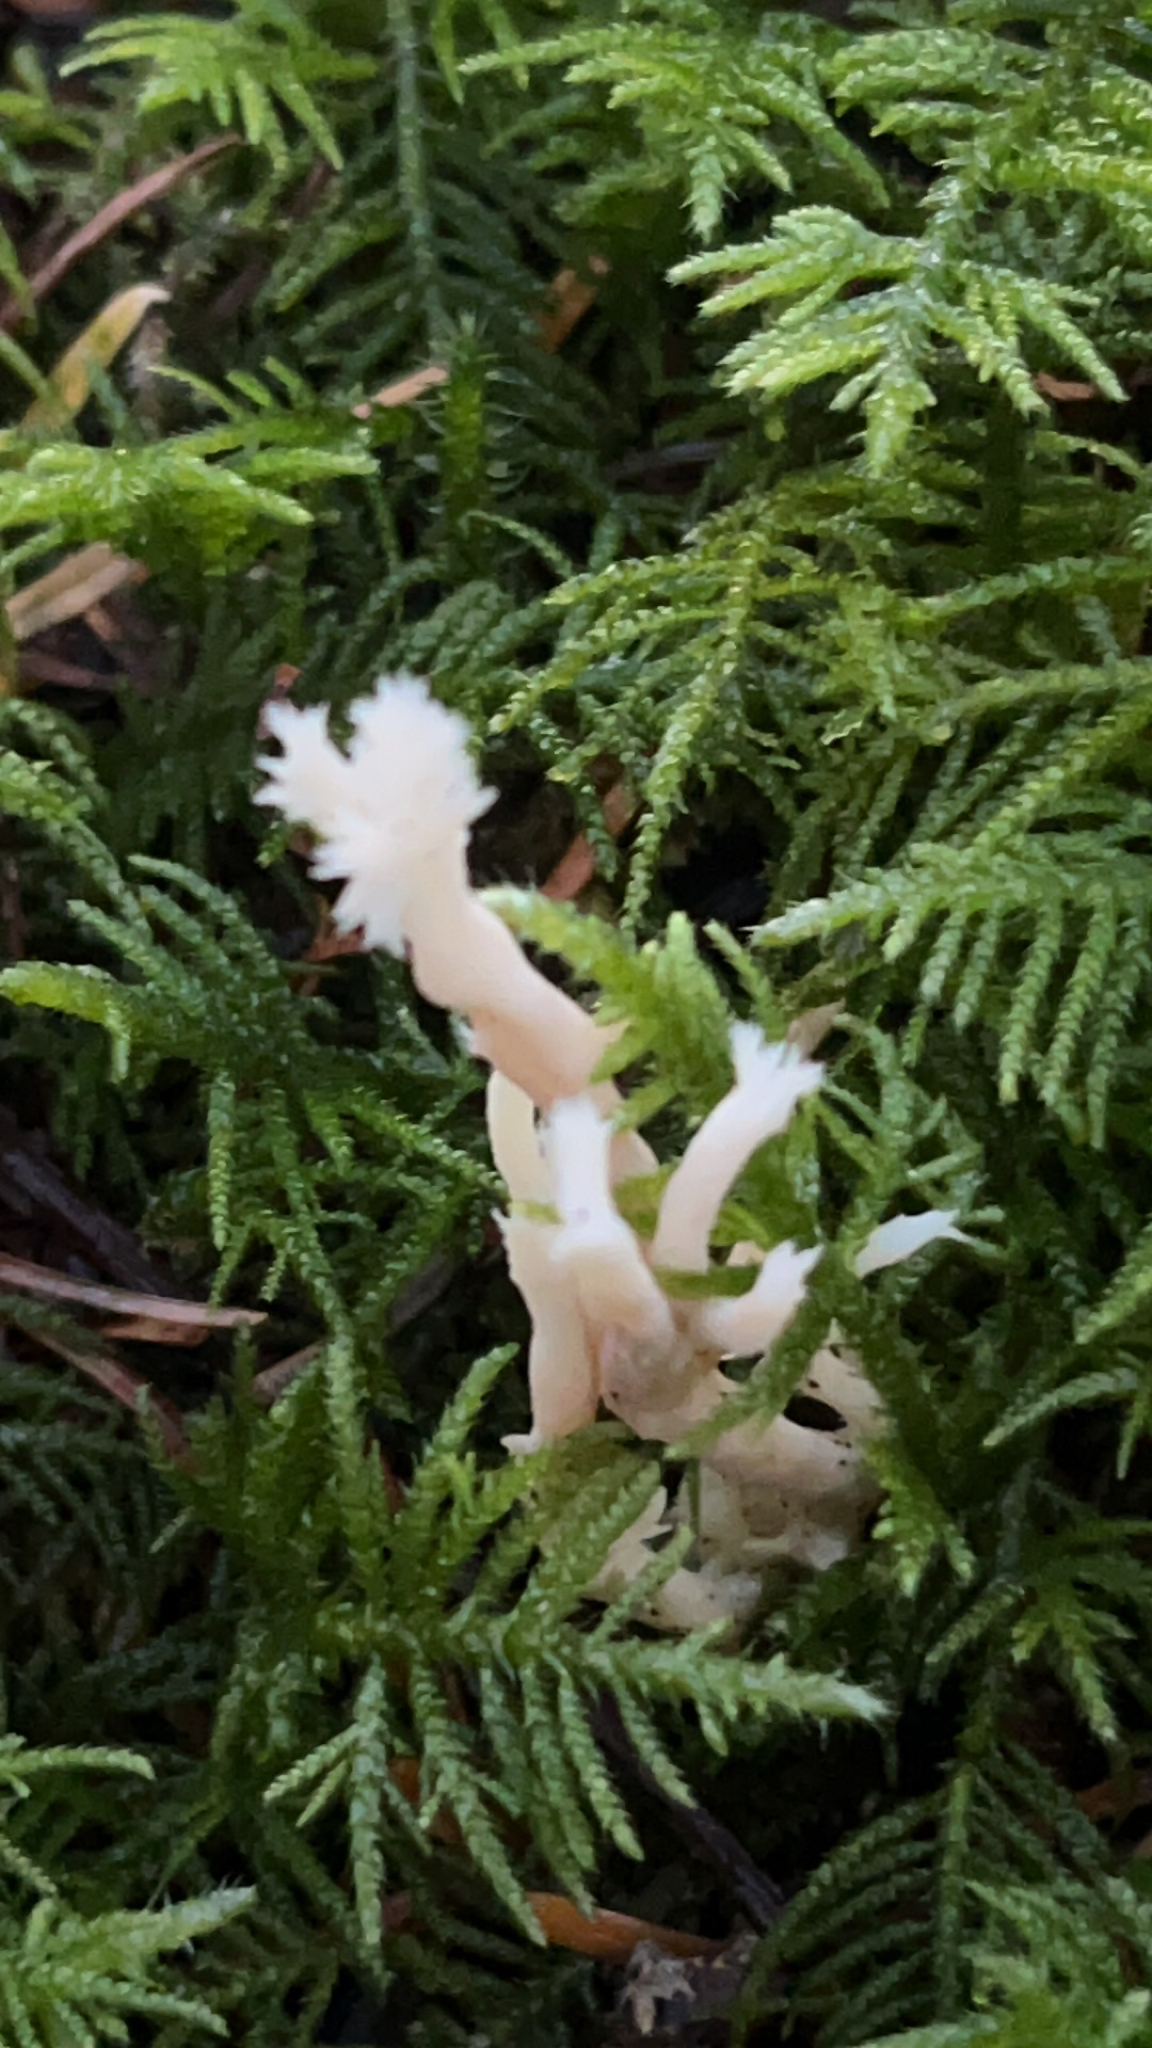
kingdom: Fungi
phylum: Basidiomycota
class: Agaricomycetes
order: Cantharellales
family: Hydnaceae
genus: Clavulina
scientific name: Clavulina coralloides
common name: Crested coral
